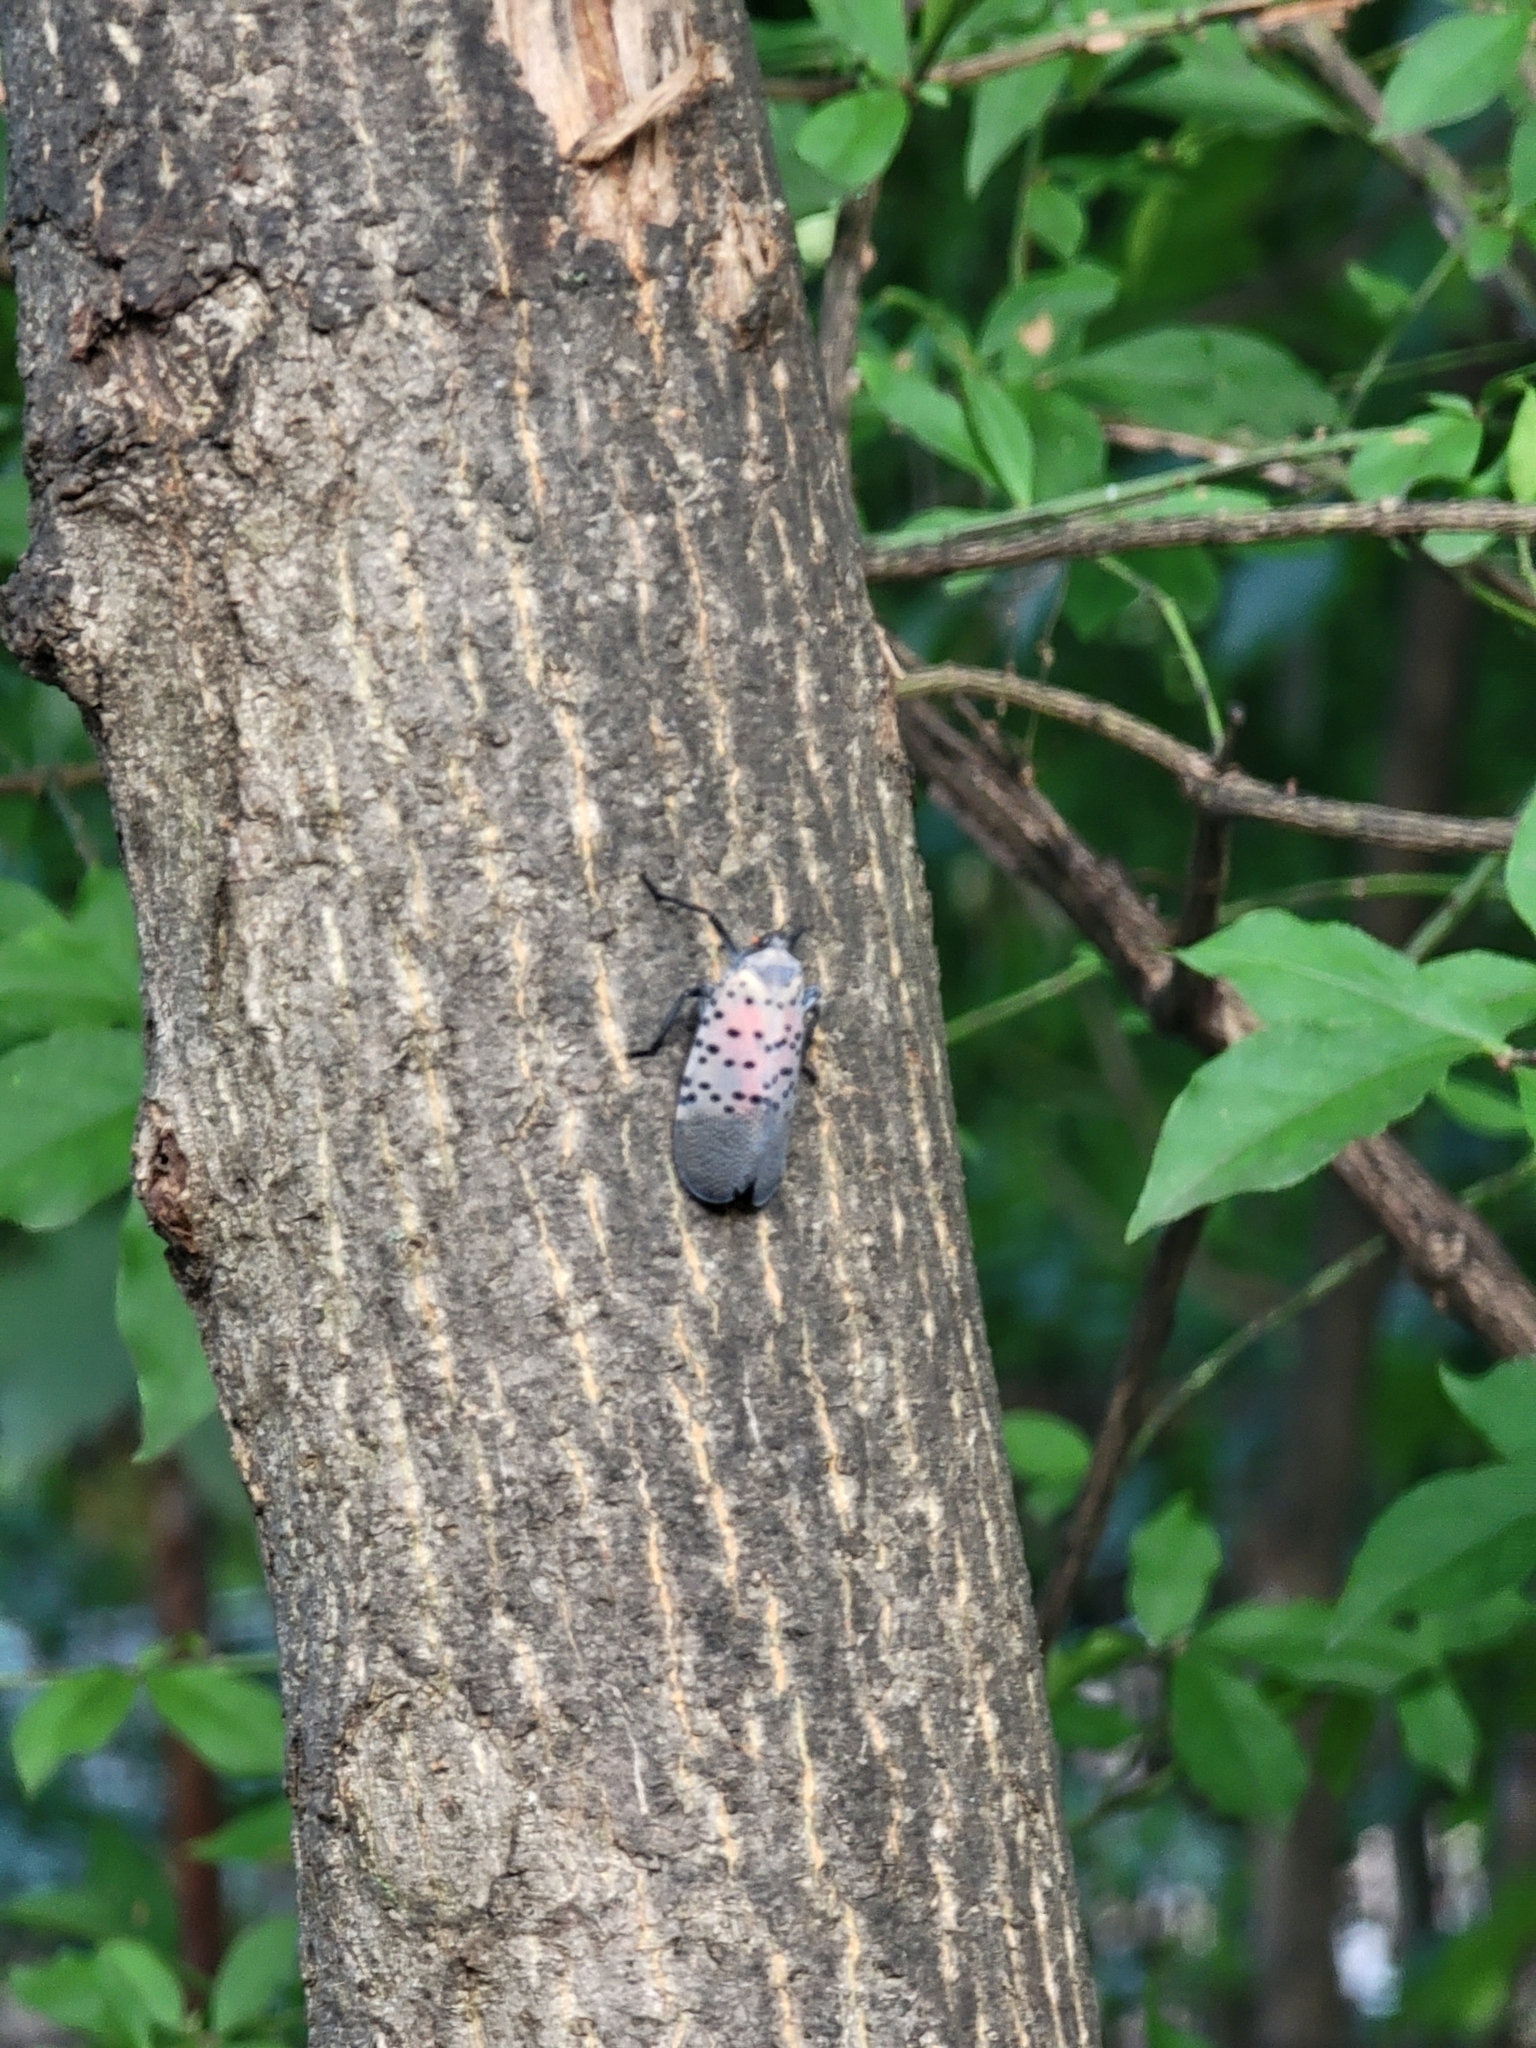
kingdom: Animalia
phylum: Arthropoda
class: Insecta
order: Hemiptera
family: Fulgoridae
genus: Lycorma
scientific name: Lycorma delicatula
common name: Spotted lanternfly
